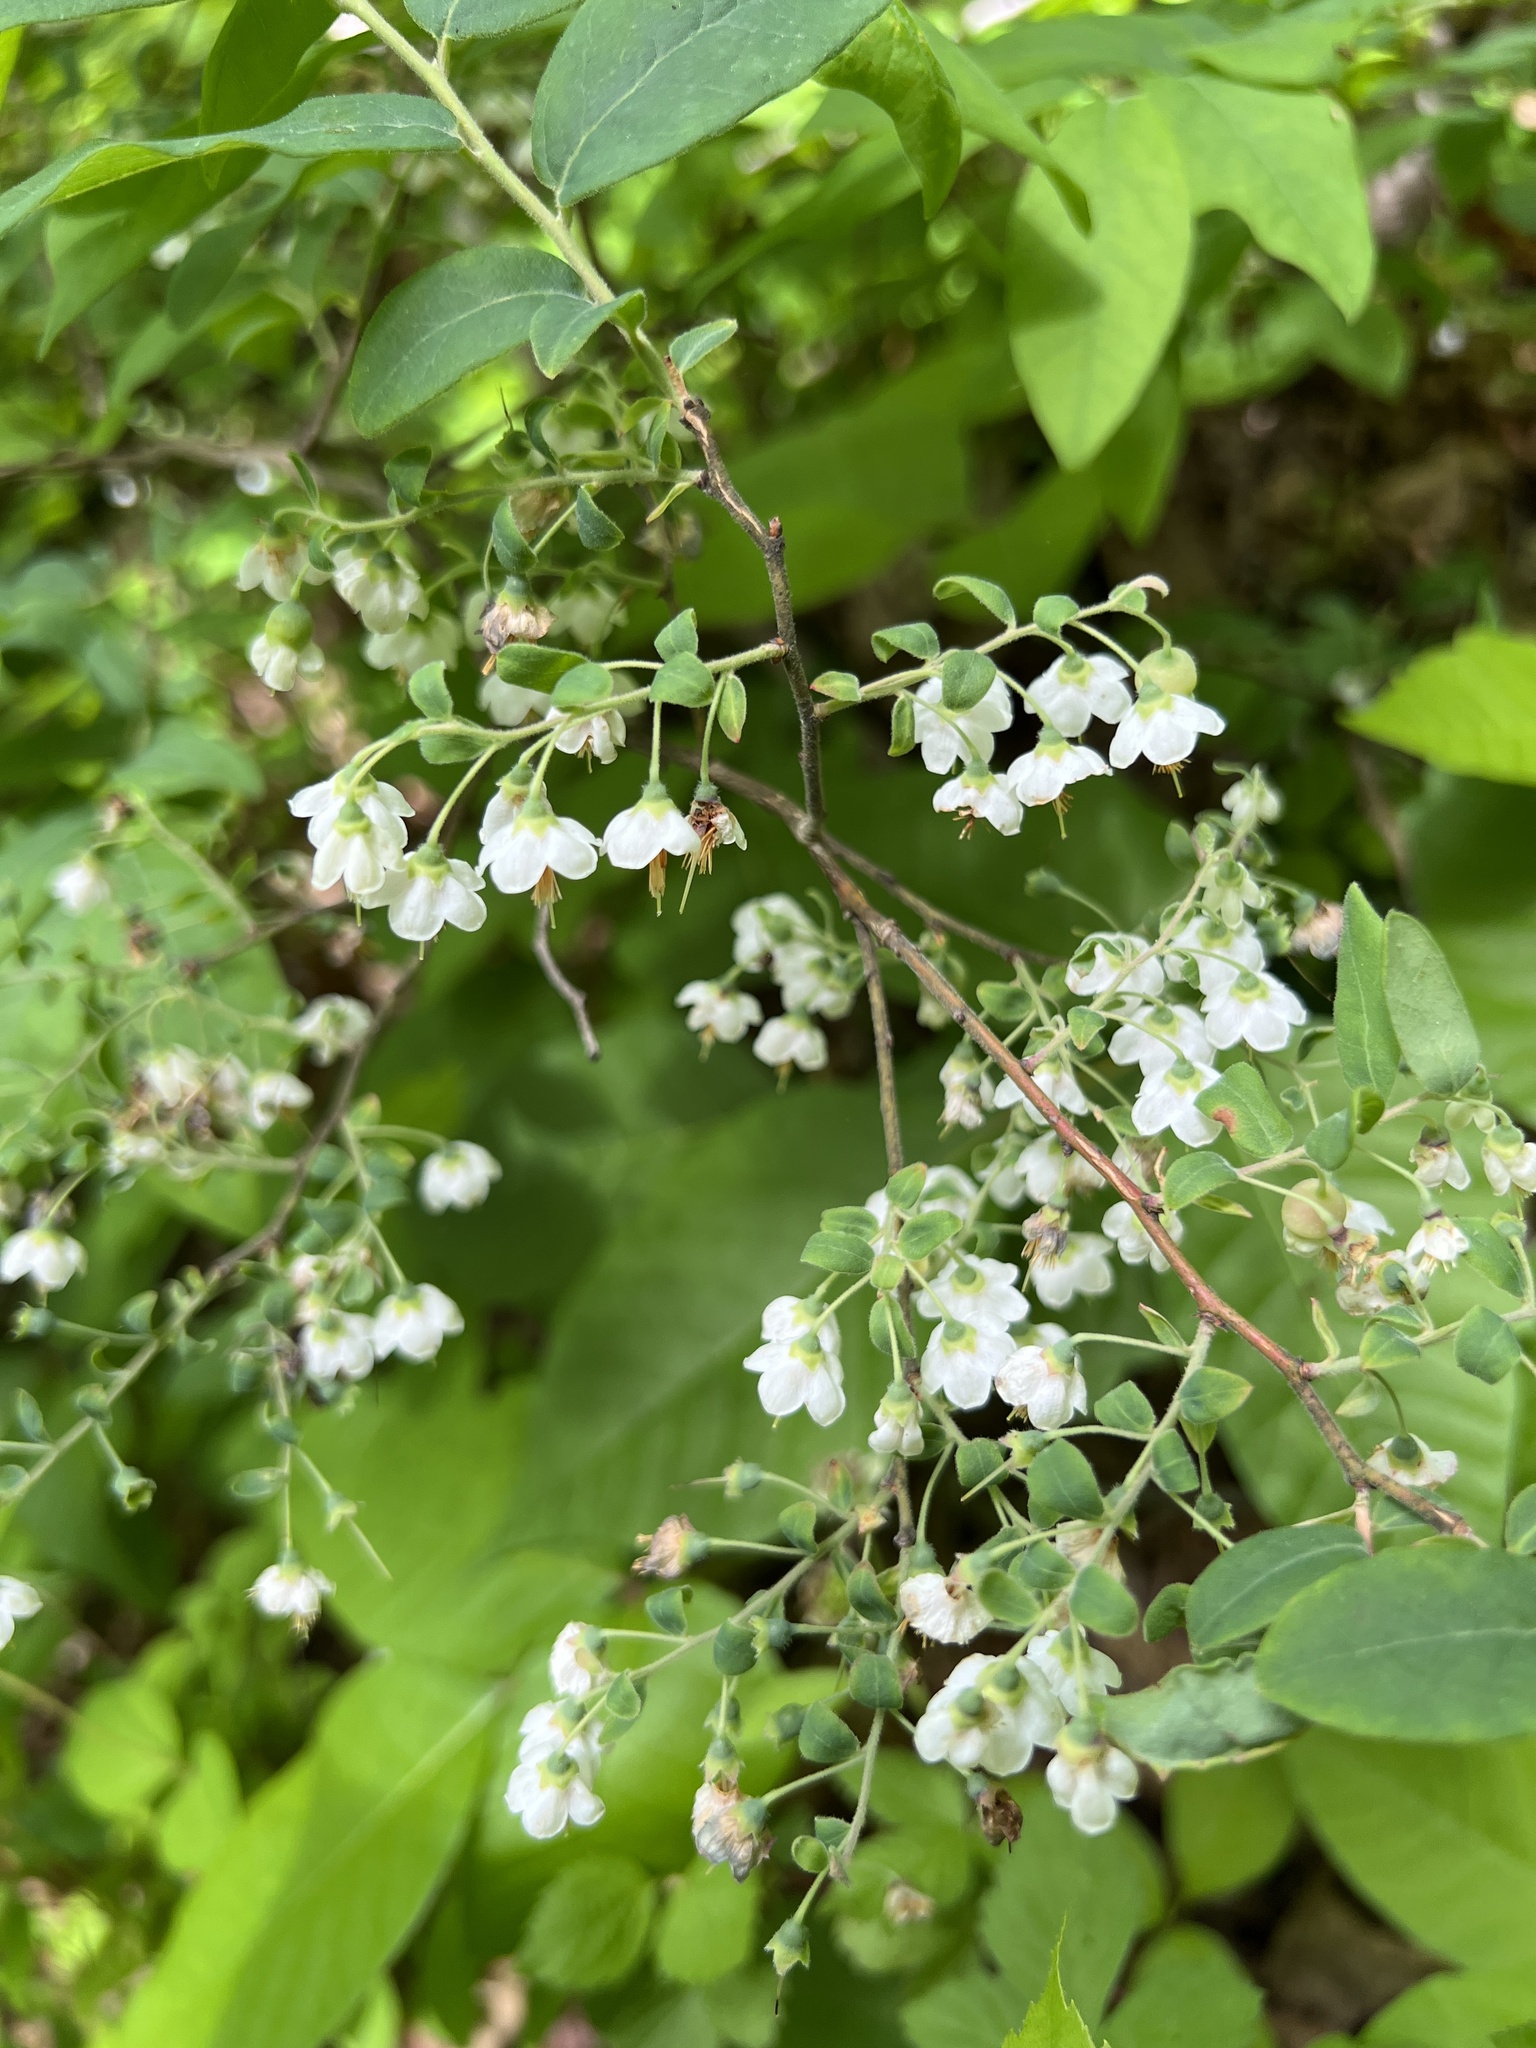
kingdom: Plantae
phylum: Tracheophyta
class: Magnoliopsida
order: Ericales
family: Ericaceae
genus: Vaccinium
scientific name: Vaccinium stamineum
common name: Deerberry
